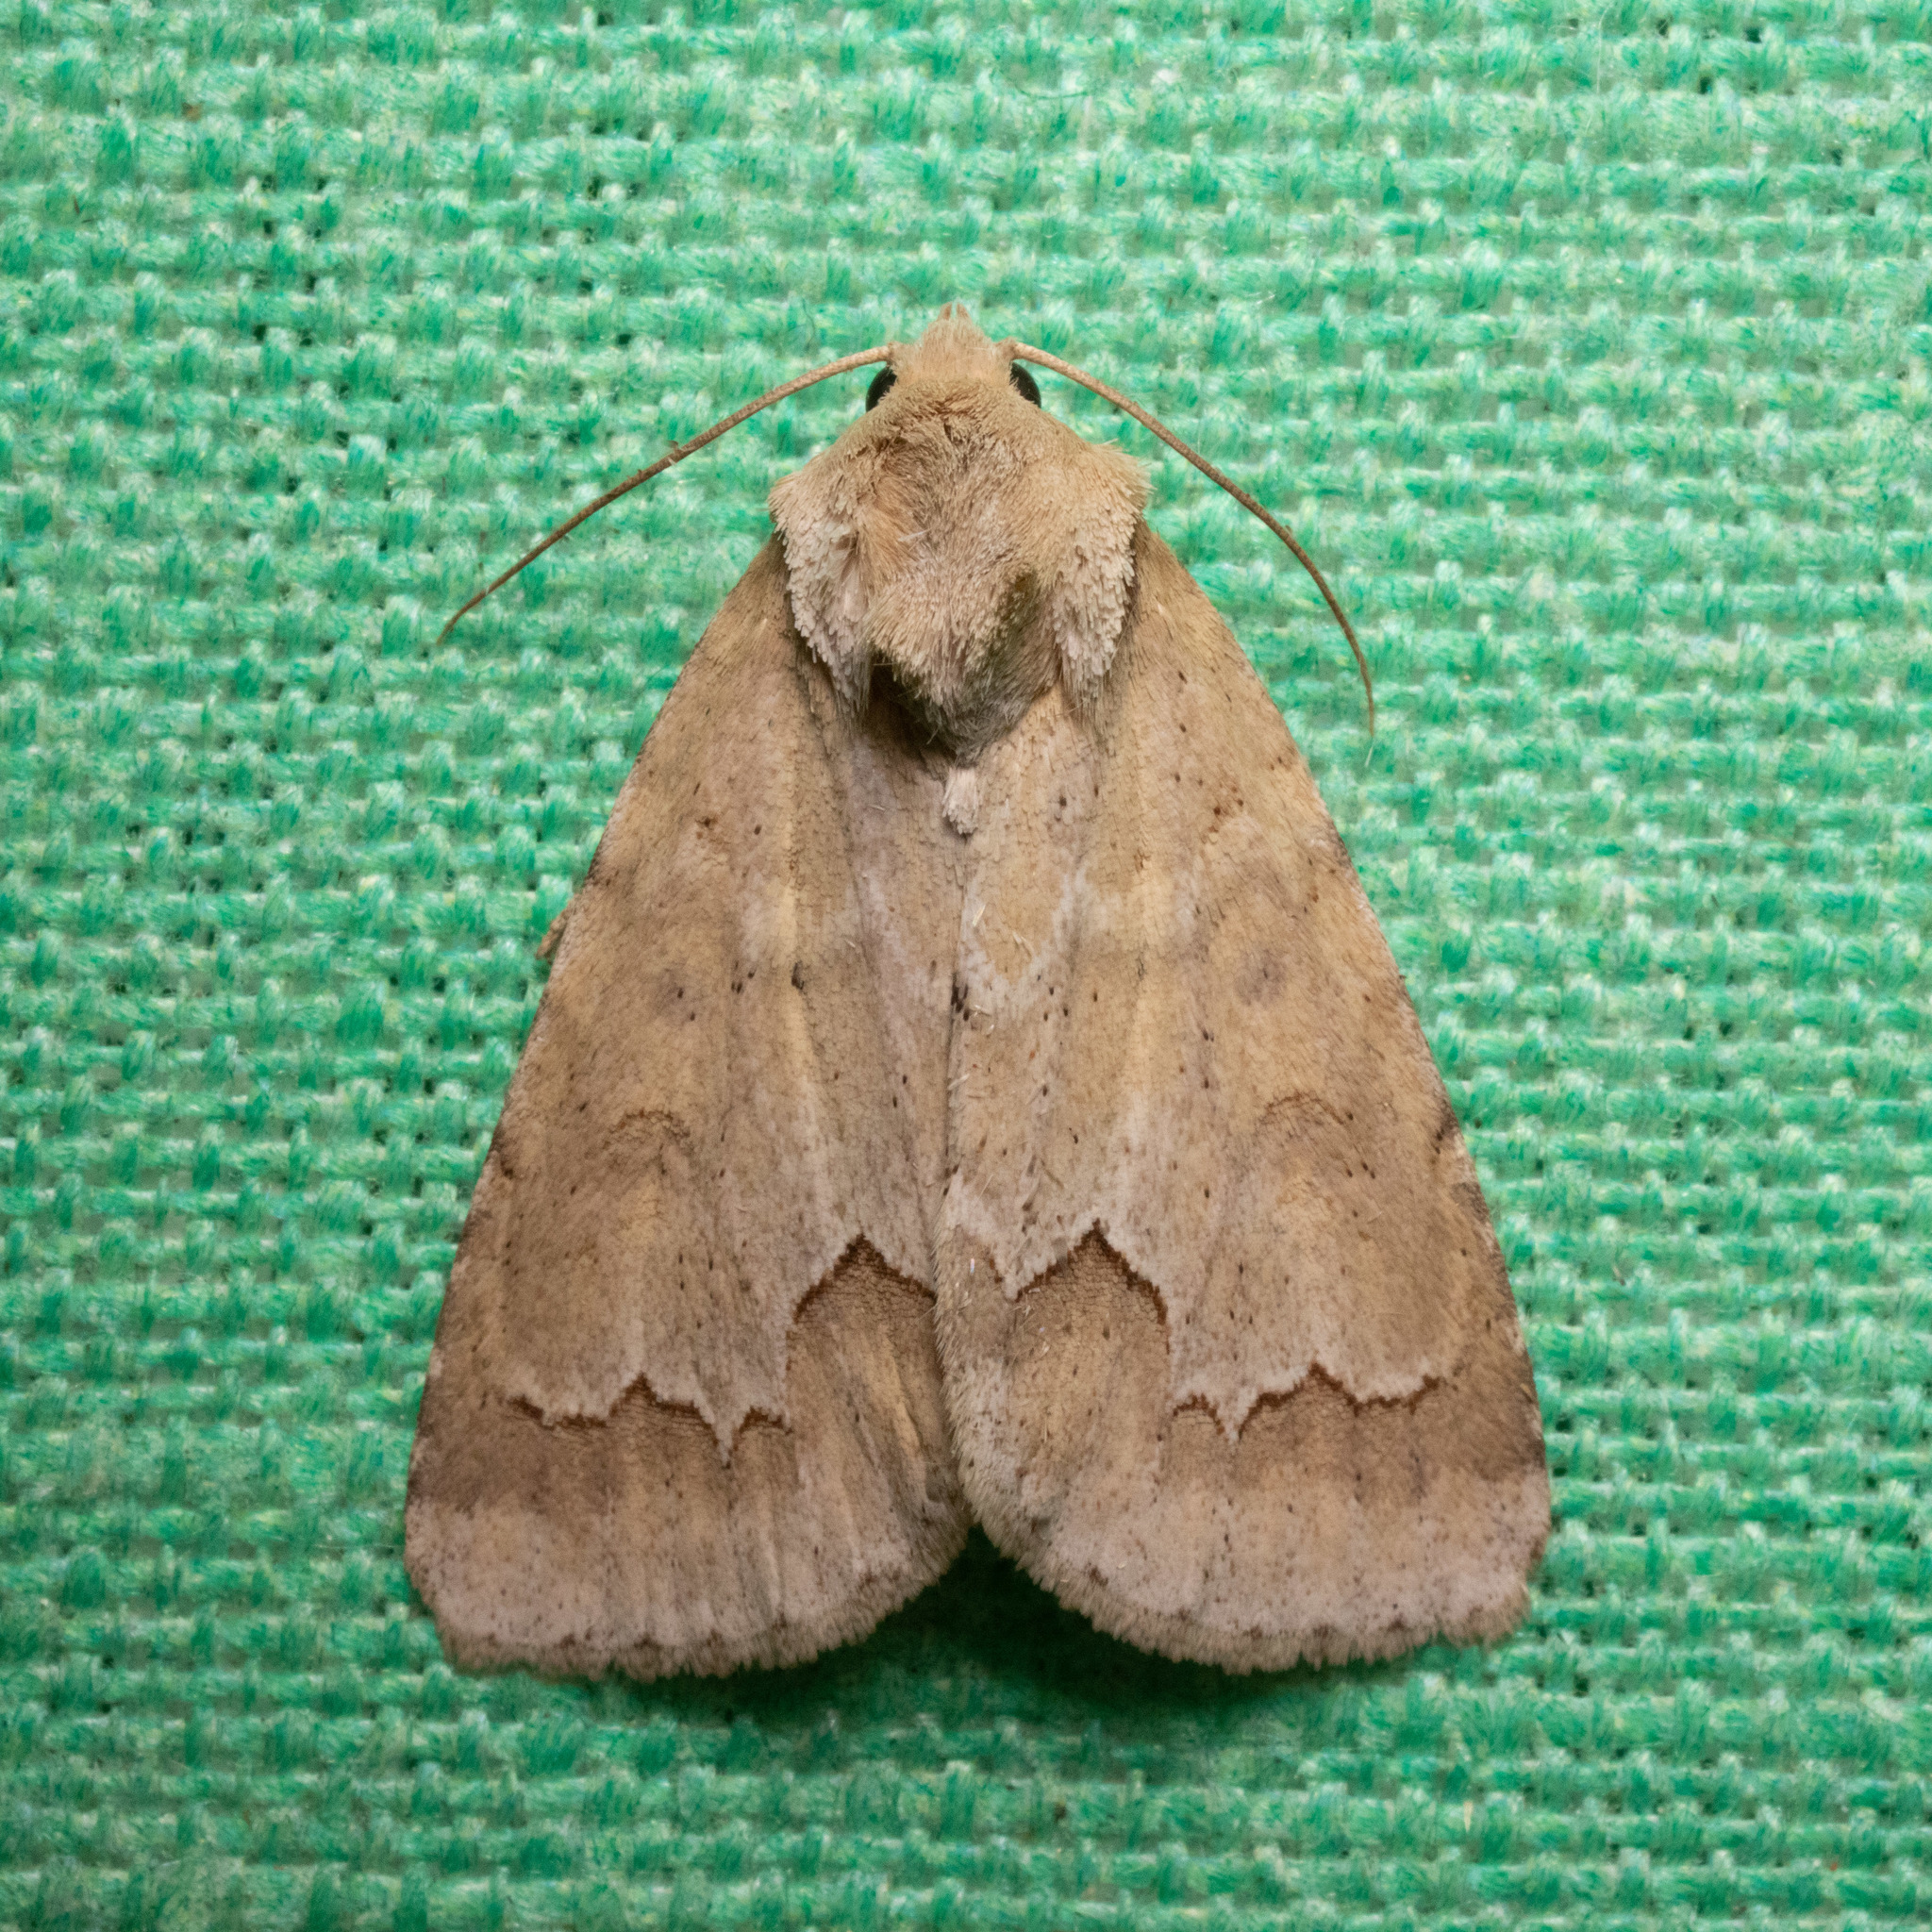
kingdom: Animalia
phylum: Arthropoda
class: Insecta
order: Lepidoptera
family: Noctuidae
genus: Acronicta
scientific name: Acronicta betulae
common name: Birch dagger moth
